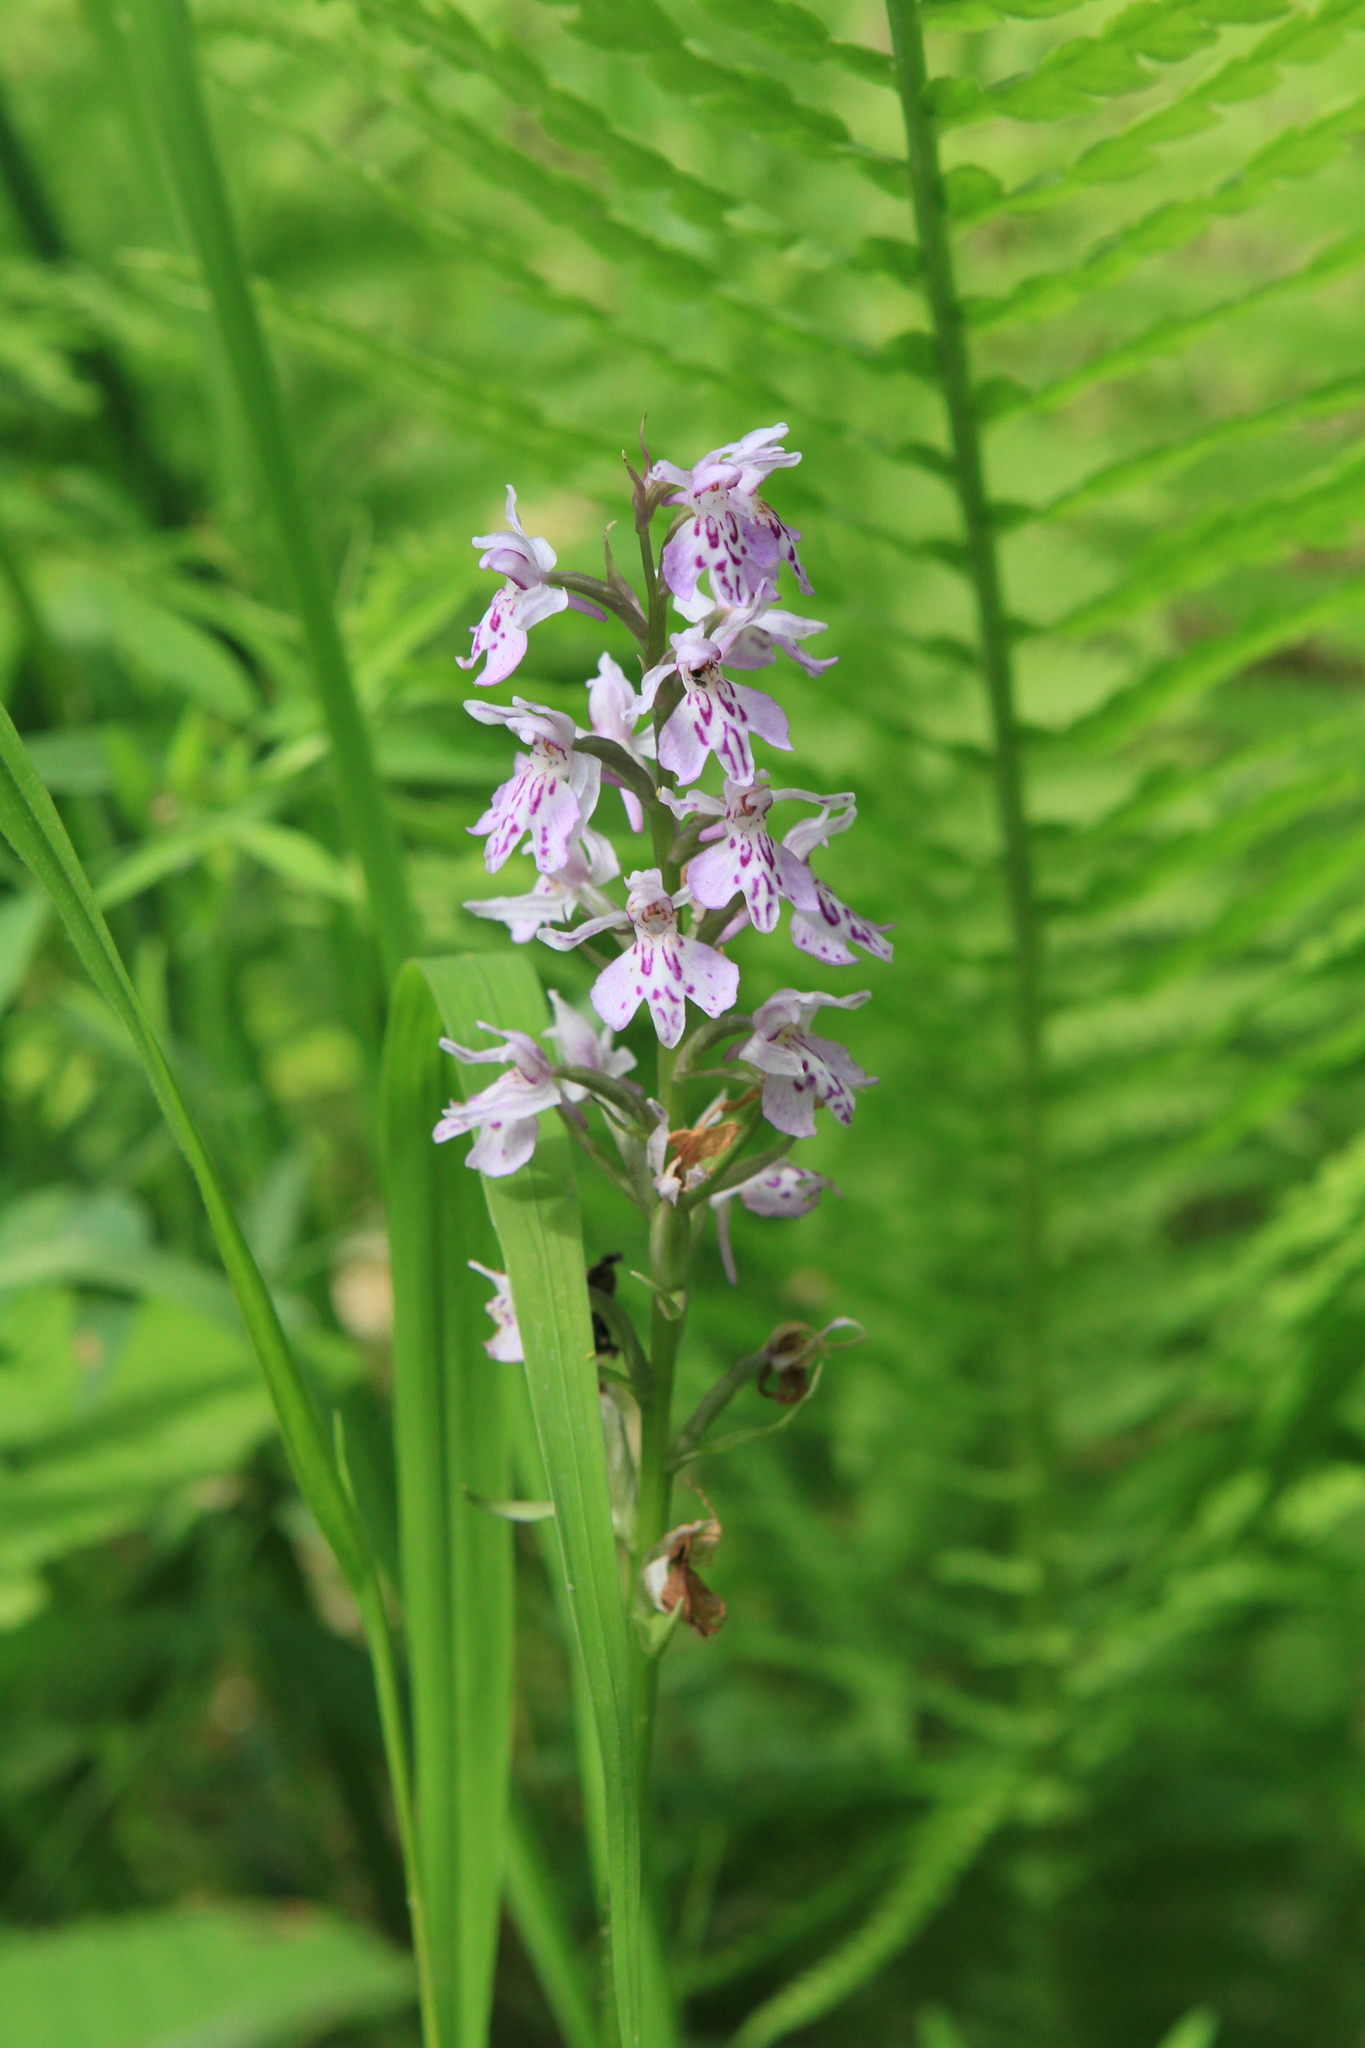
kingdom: Plantae
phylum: Tracheophyta
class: Liliopsida
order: Asparagales
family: Orchidaceae
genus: Dactylorhiza
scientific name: Dactylorhiza maculata
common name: Heath spotted-orchid
